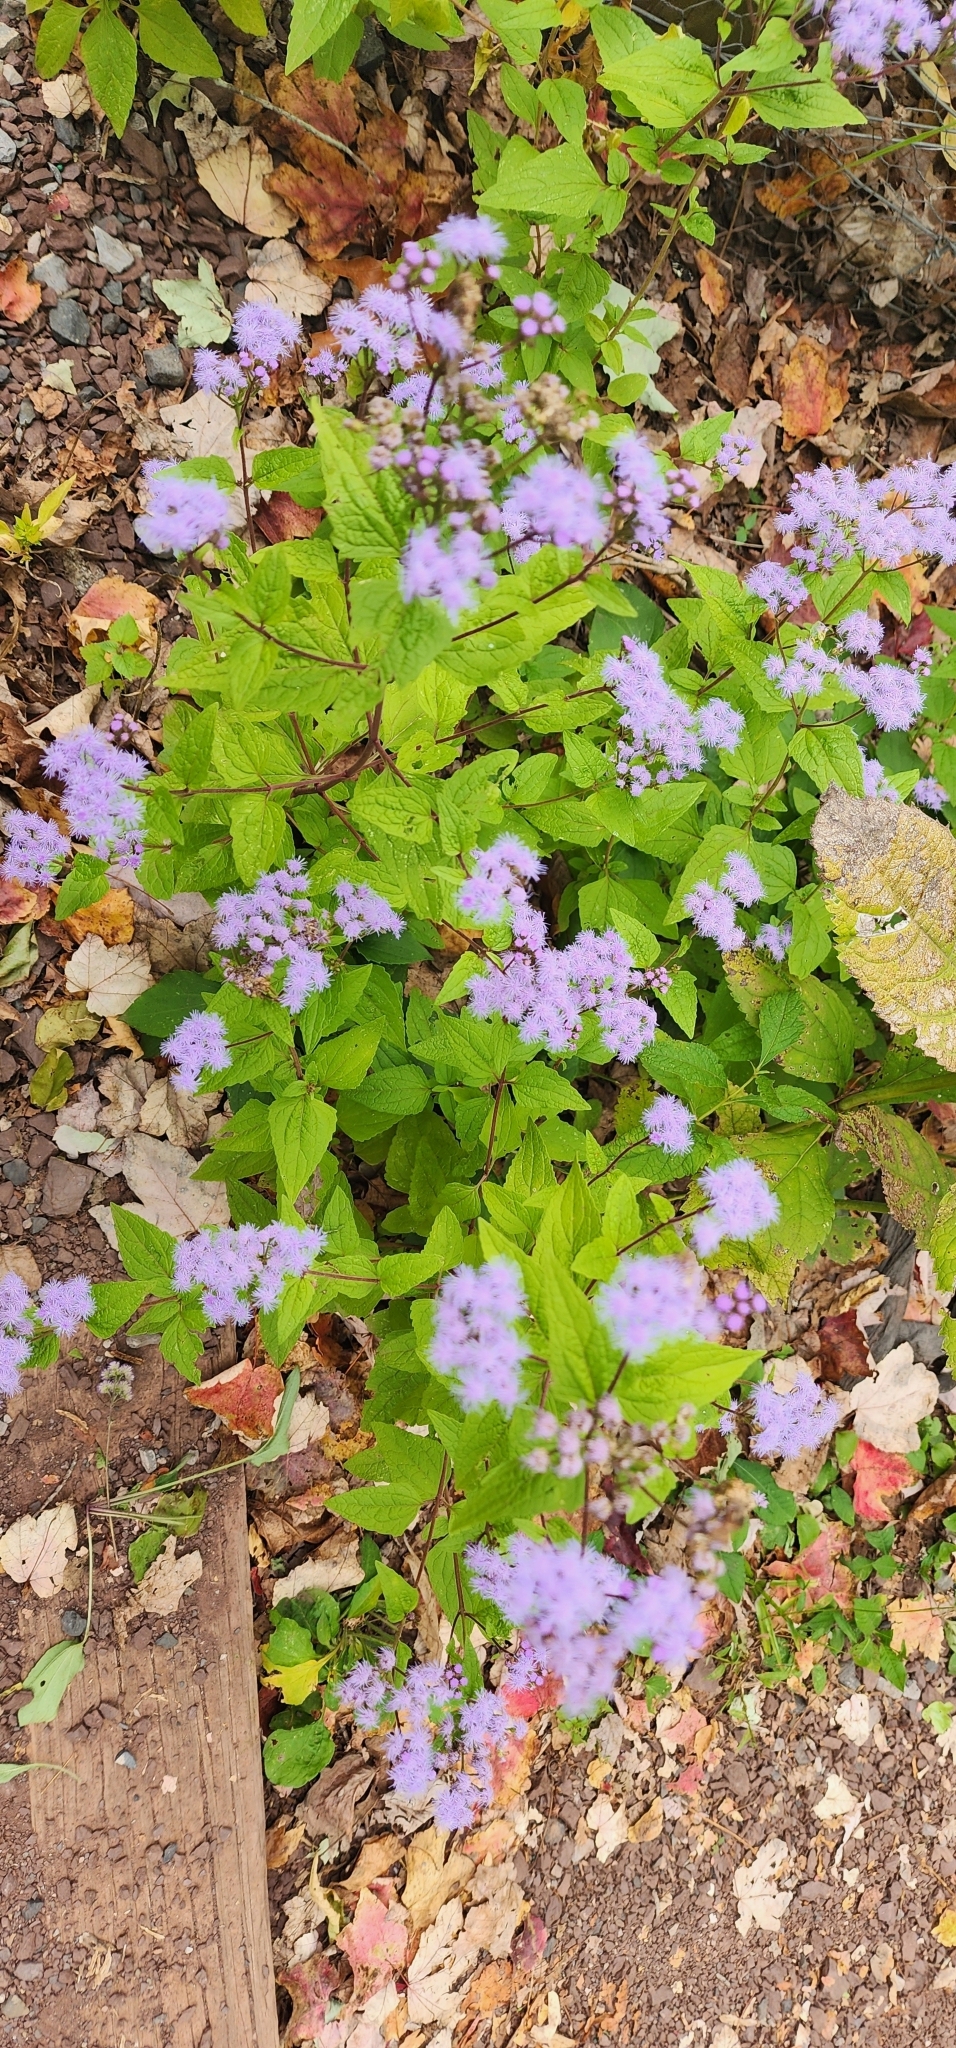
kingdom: Plantae
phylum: Tracheophyta
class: Magnoliopsida
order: Asterales
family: Asteraceae
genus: Conoclinium
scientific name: Conoclinium coelestinum
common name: Blue mistflower
